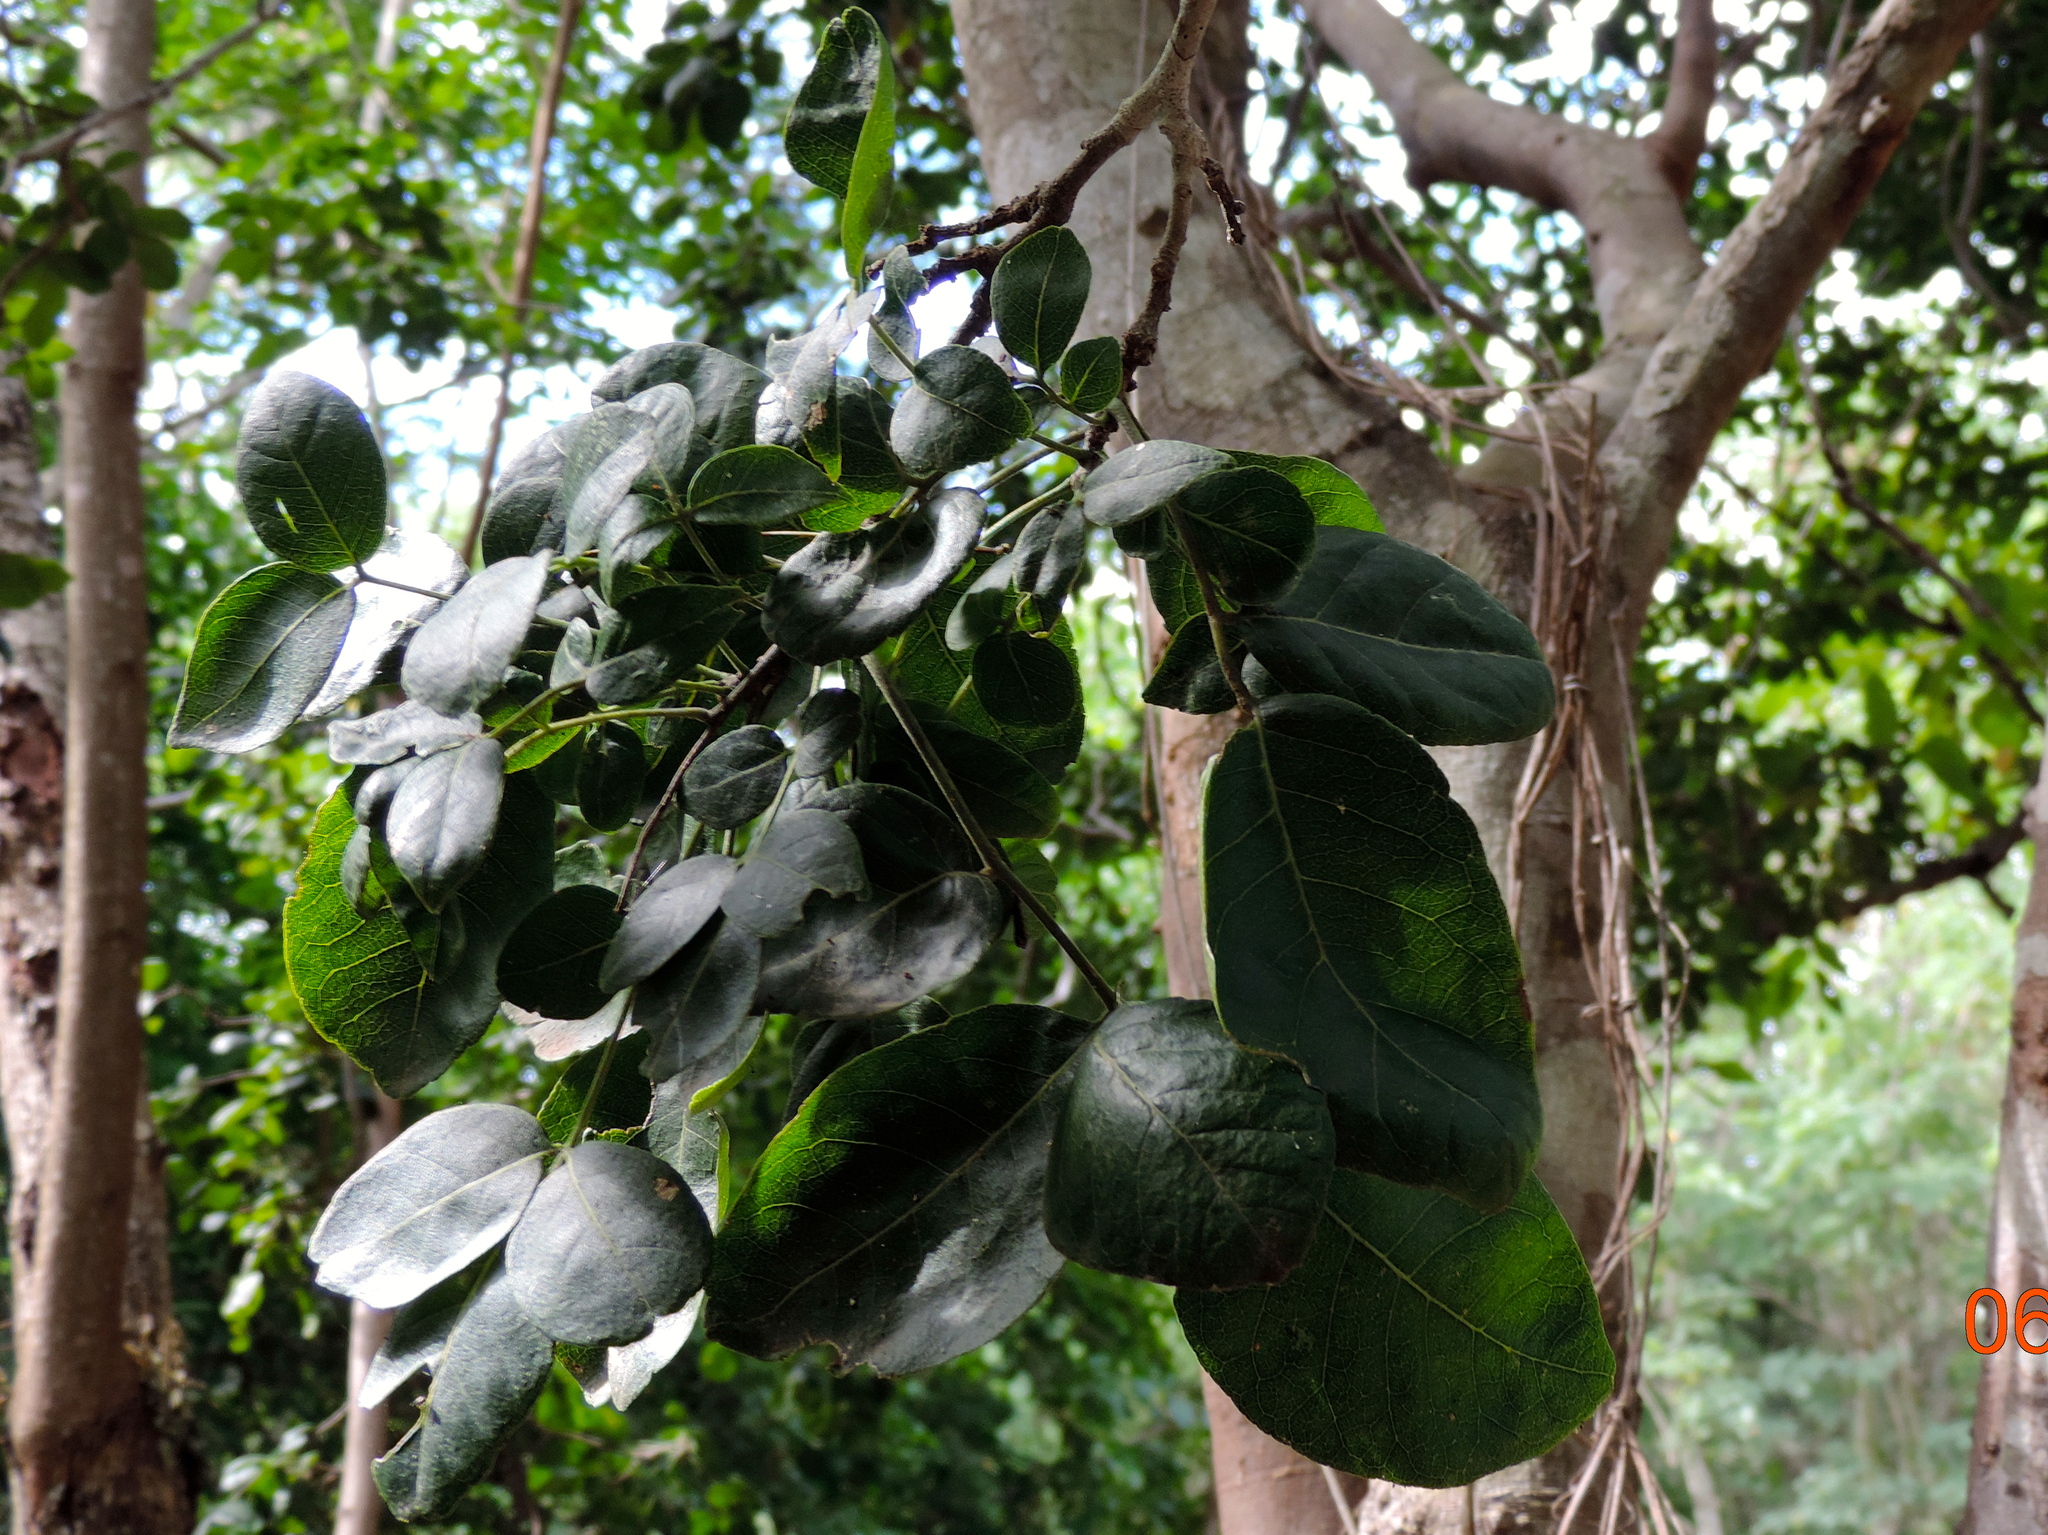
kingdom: Plantae
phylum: Tracheophyta
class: Magnoliopsida
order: Sapindales
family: Rutaceae
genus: Zanthoxylum
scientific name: Zanthoxylum arborescens
